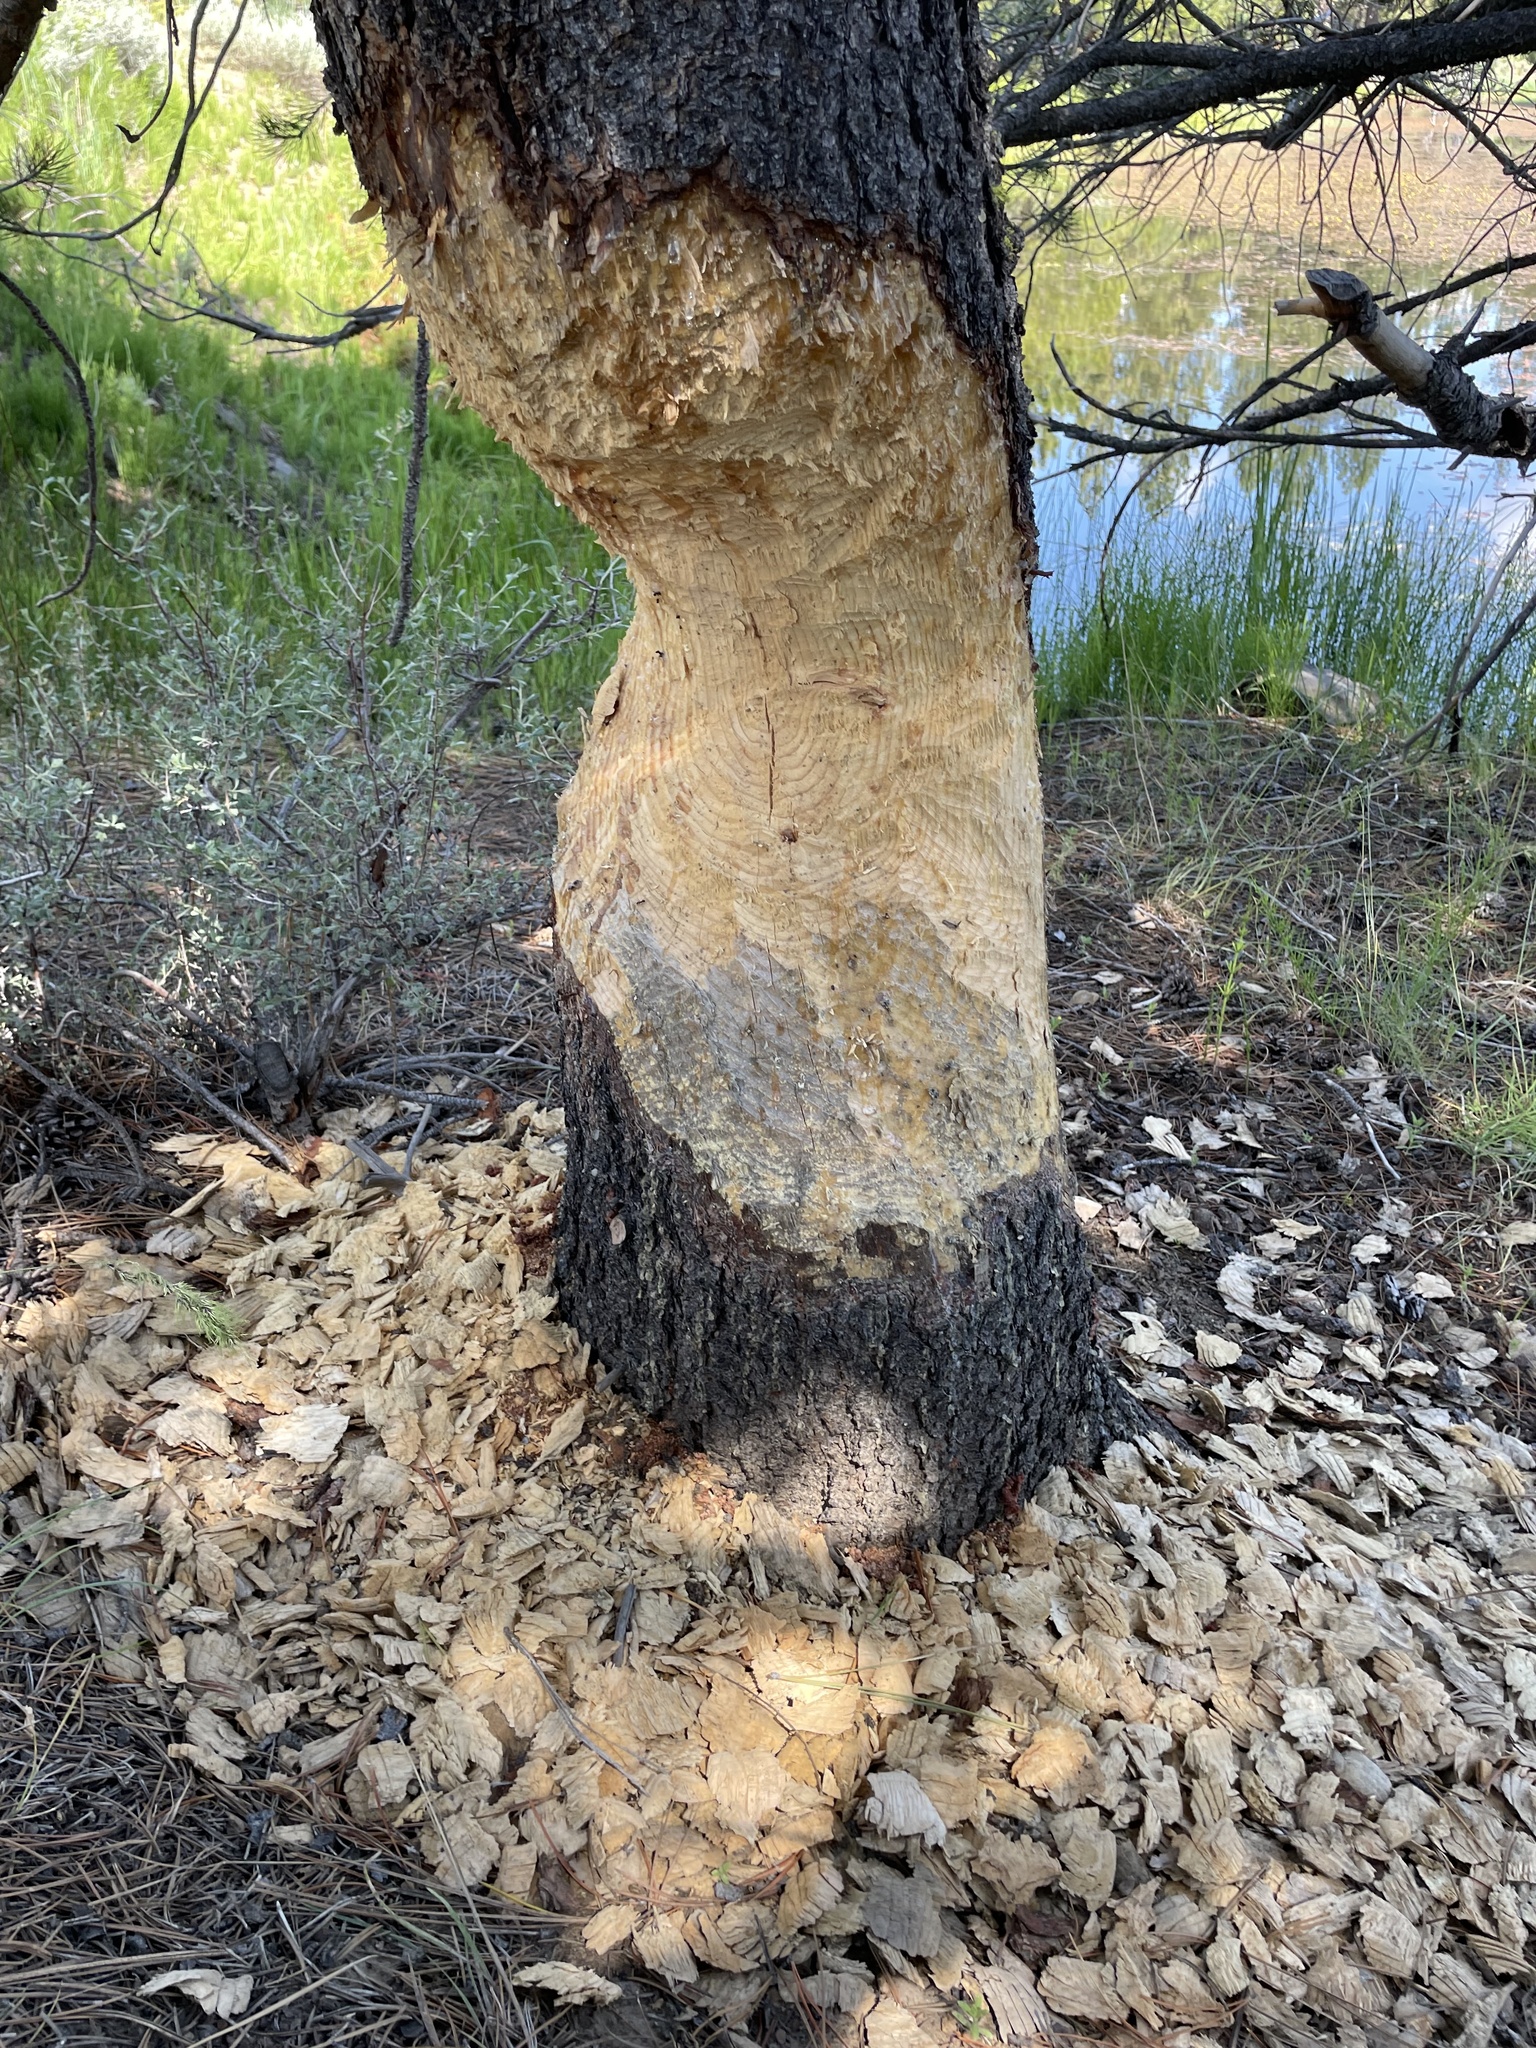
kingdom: Animalia
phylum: Chordata
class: Mammalia
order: Rodentia
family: Castoridae
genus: Castor
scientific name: Castor canadensis
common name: American beaver
